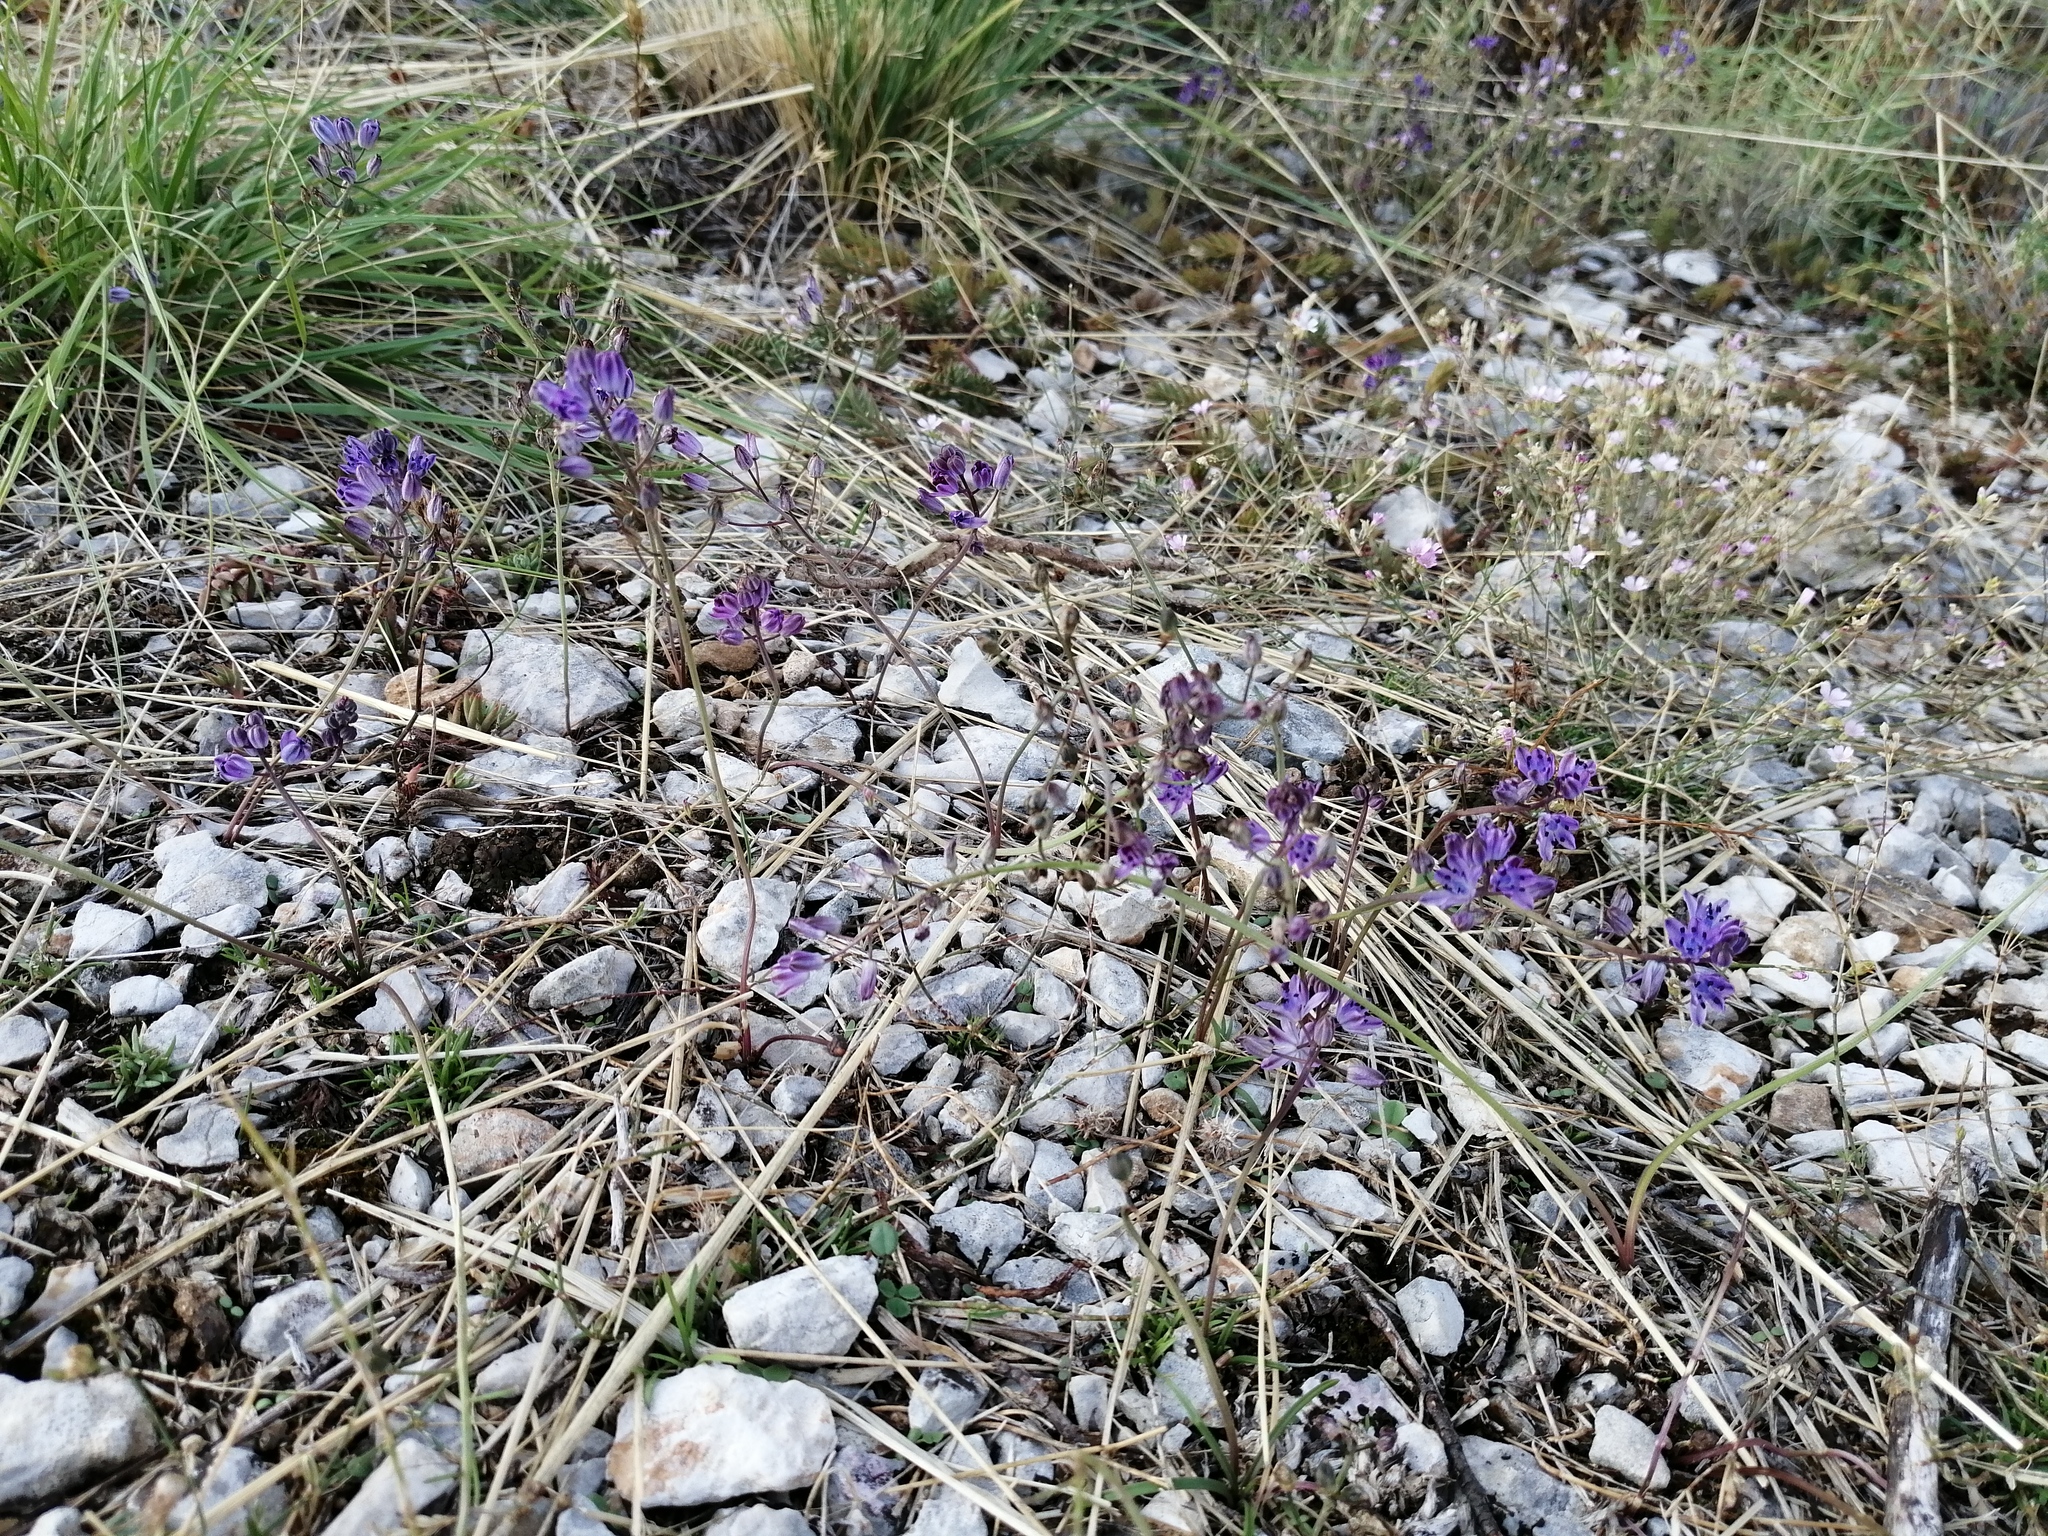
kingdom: Plantae
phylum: Tracheophyta
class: Liliopsida
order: Asparagales
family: Asparagaceae
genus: Prospero
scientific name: Prospero autumnale
